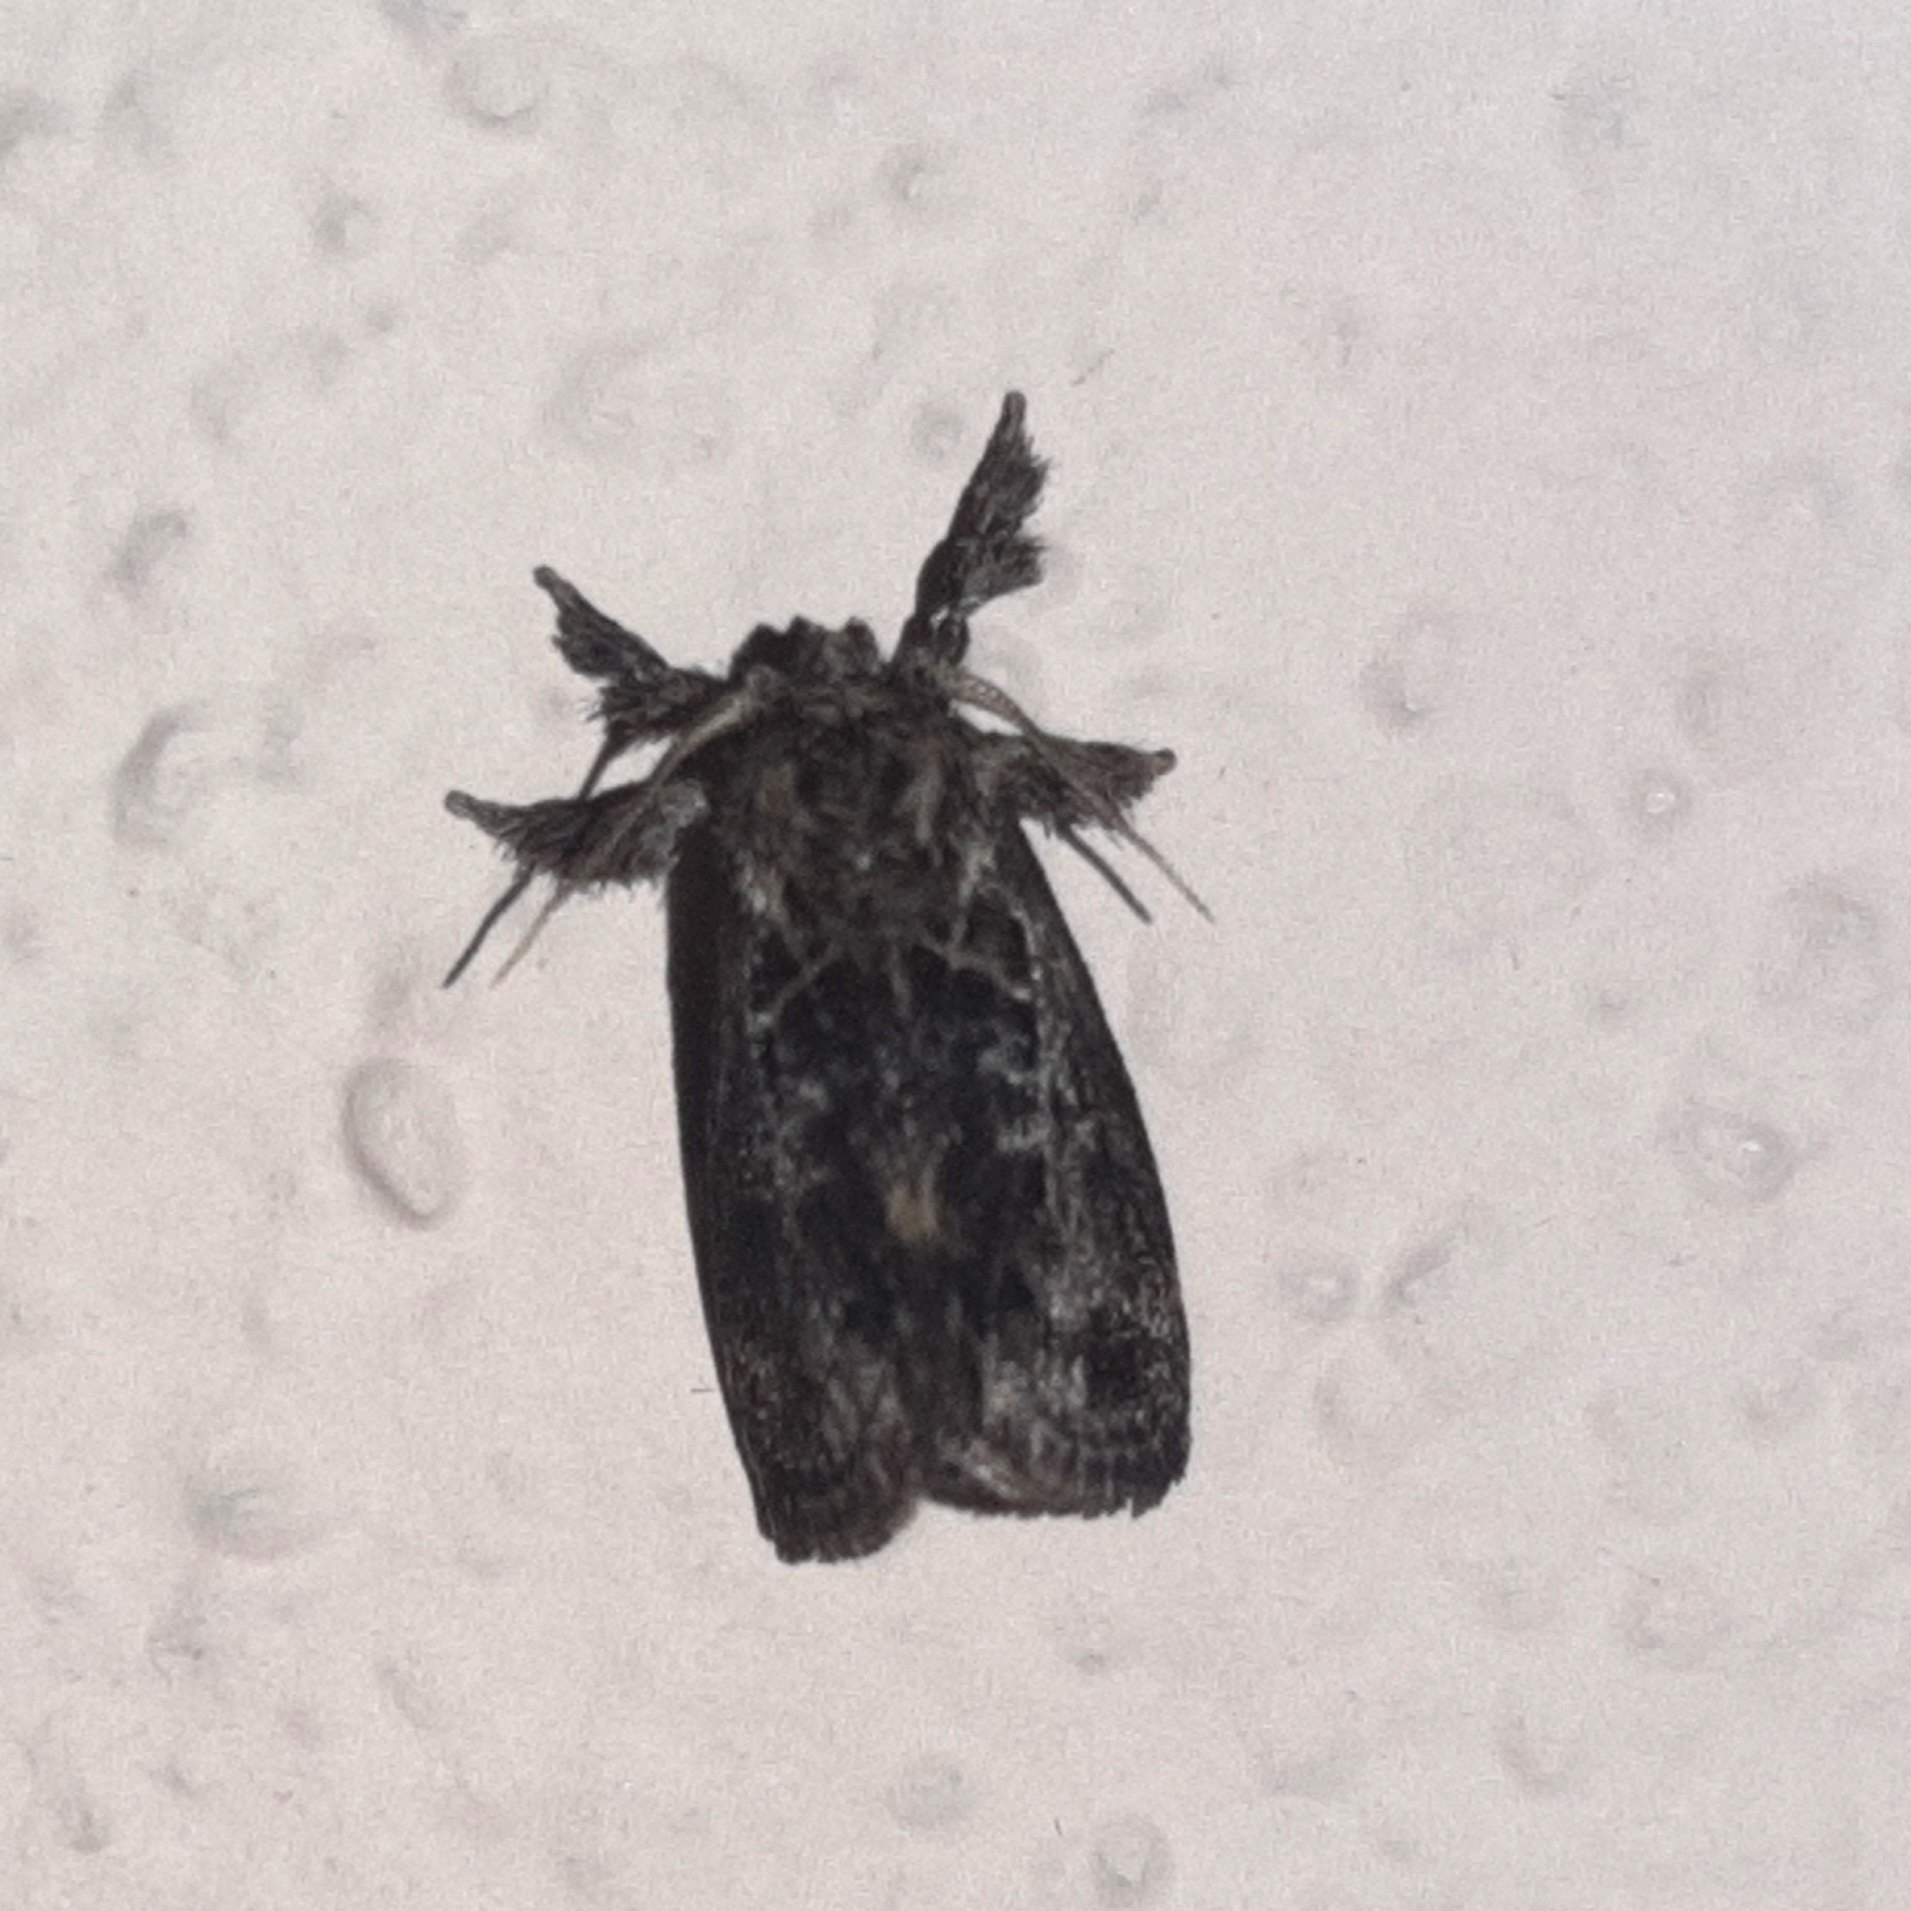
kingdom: Animalia
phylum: Arthropoda
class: Insecta
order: Lepidoptera
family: Limacodidae
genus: Euclea
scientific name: Euclea plugma
